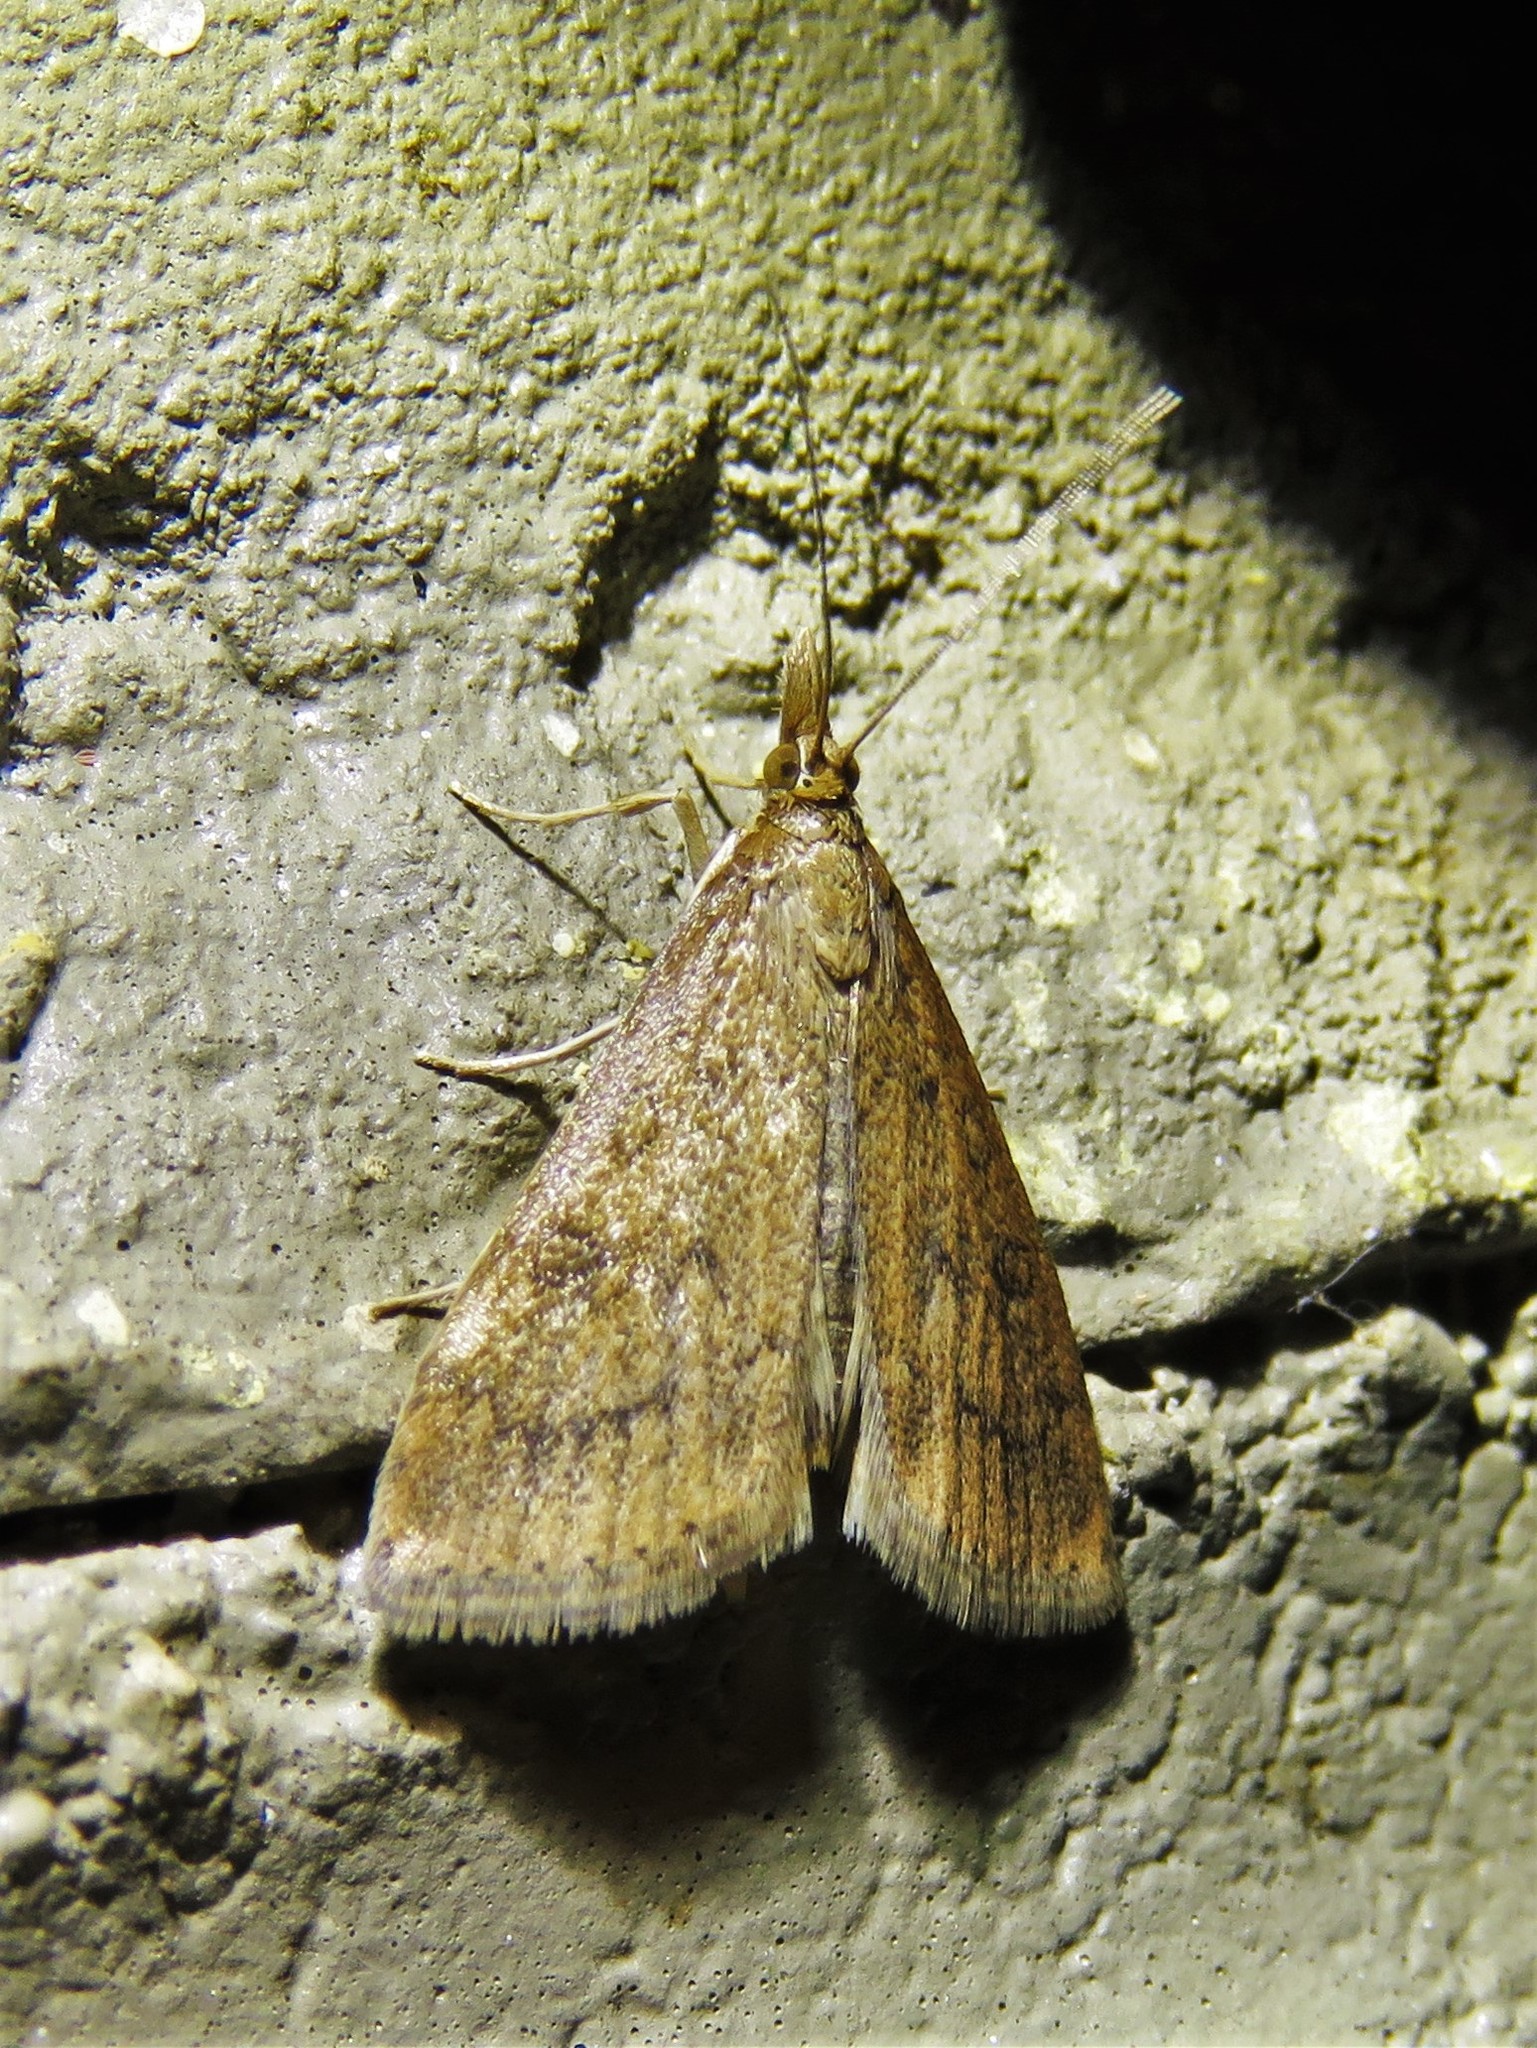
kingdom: Animalia
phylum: Arthropoda
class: Insecta
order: Lepidoptera
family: Crambidae
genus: Udea
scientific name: Udea rubigalis
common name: Celery leaftier moth
